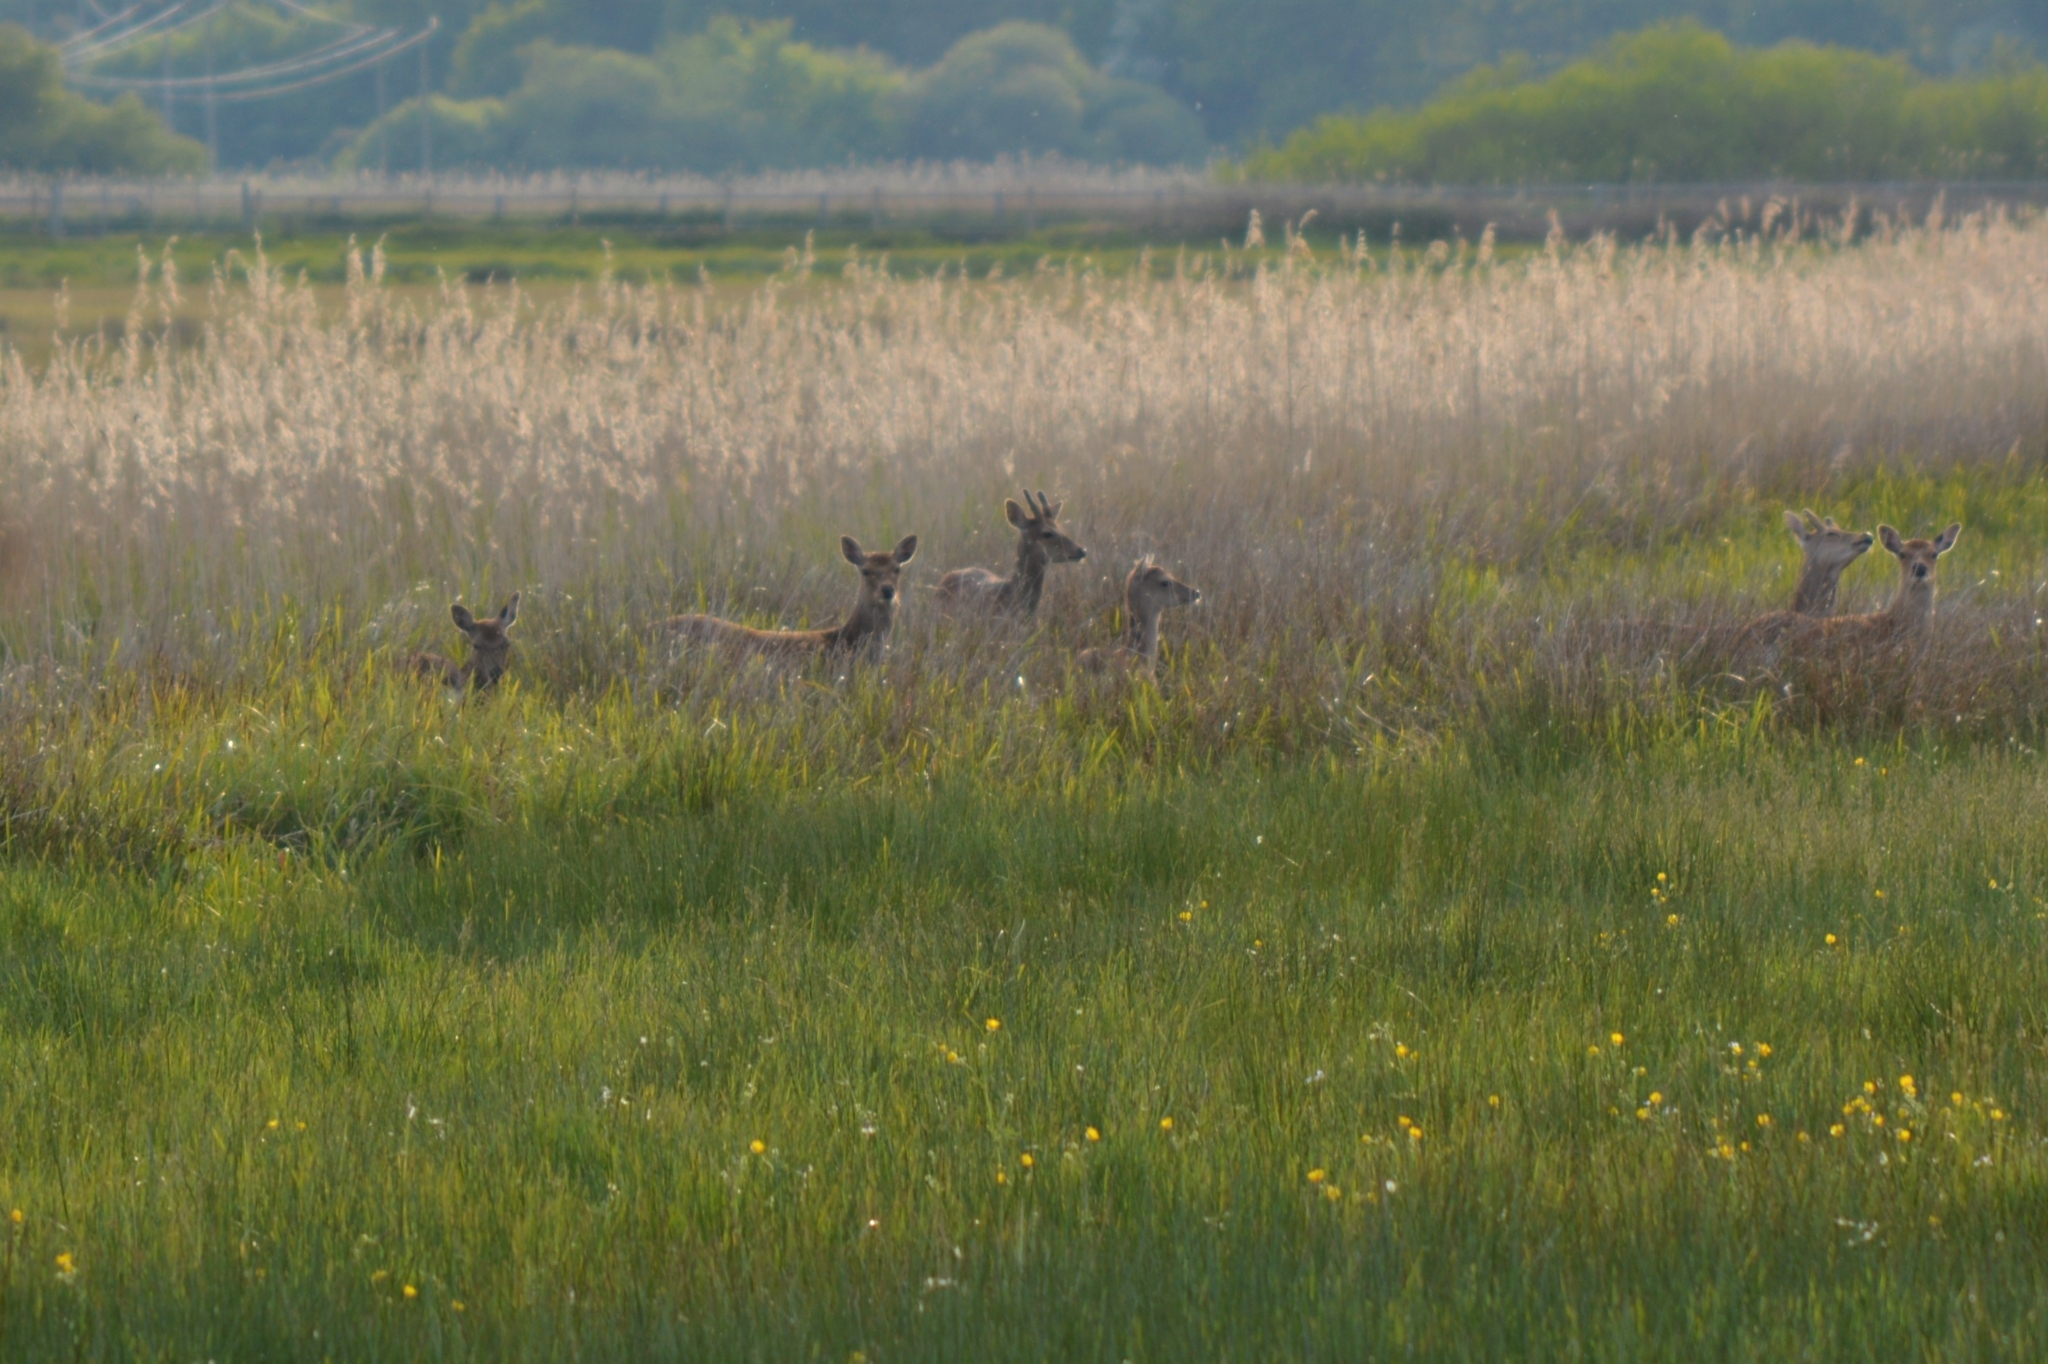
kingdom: Animalia
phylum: Chordata
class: Mammalia
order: Artiodactyla
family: Cervidae
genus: Dama
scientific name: Dama dama
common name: Fallow deer
